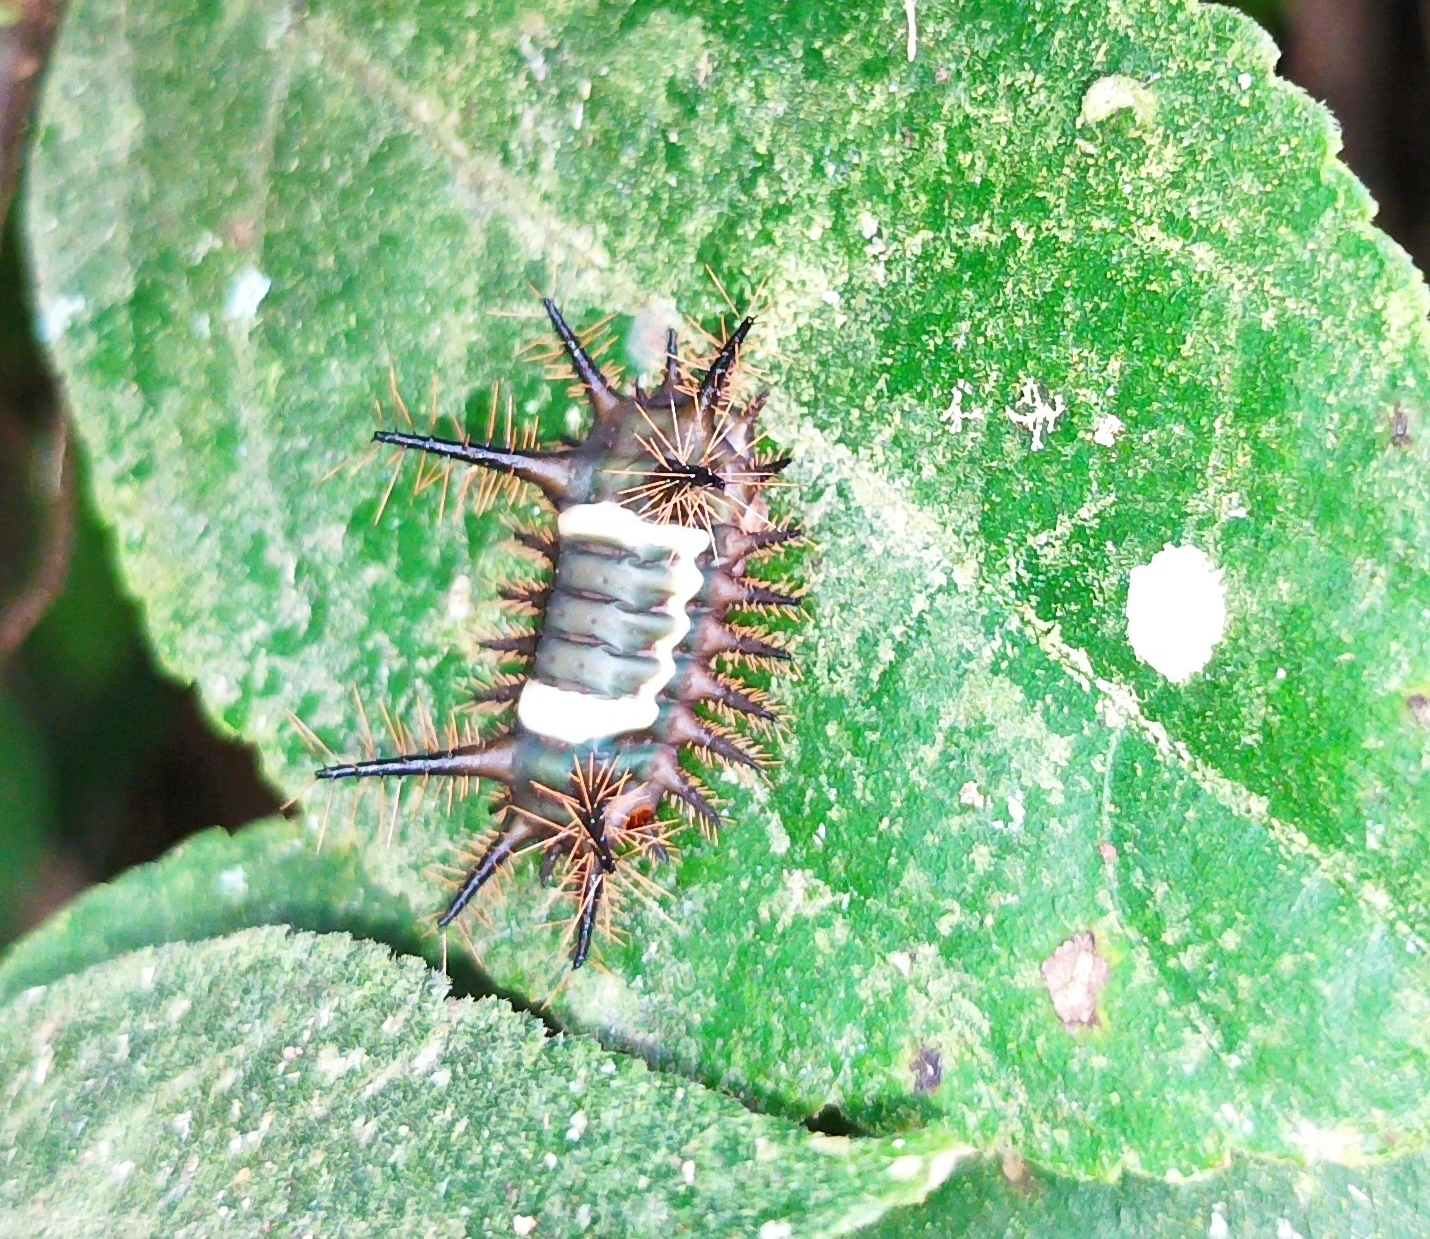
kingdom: Animalia
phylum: Arthropoda
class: Insecta
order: Lepidoptera
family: Limacodidae
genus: Sibine
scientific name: Sibine nesea
